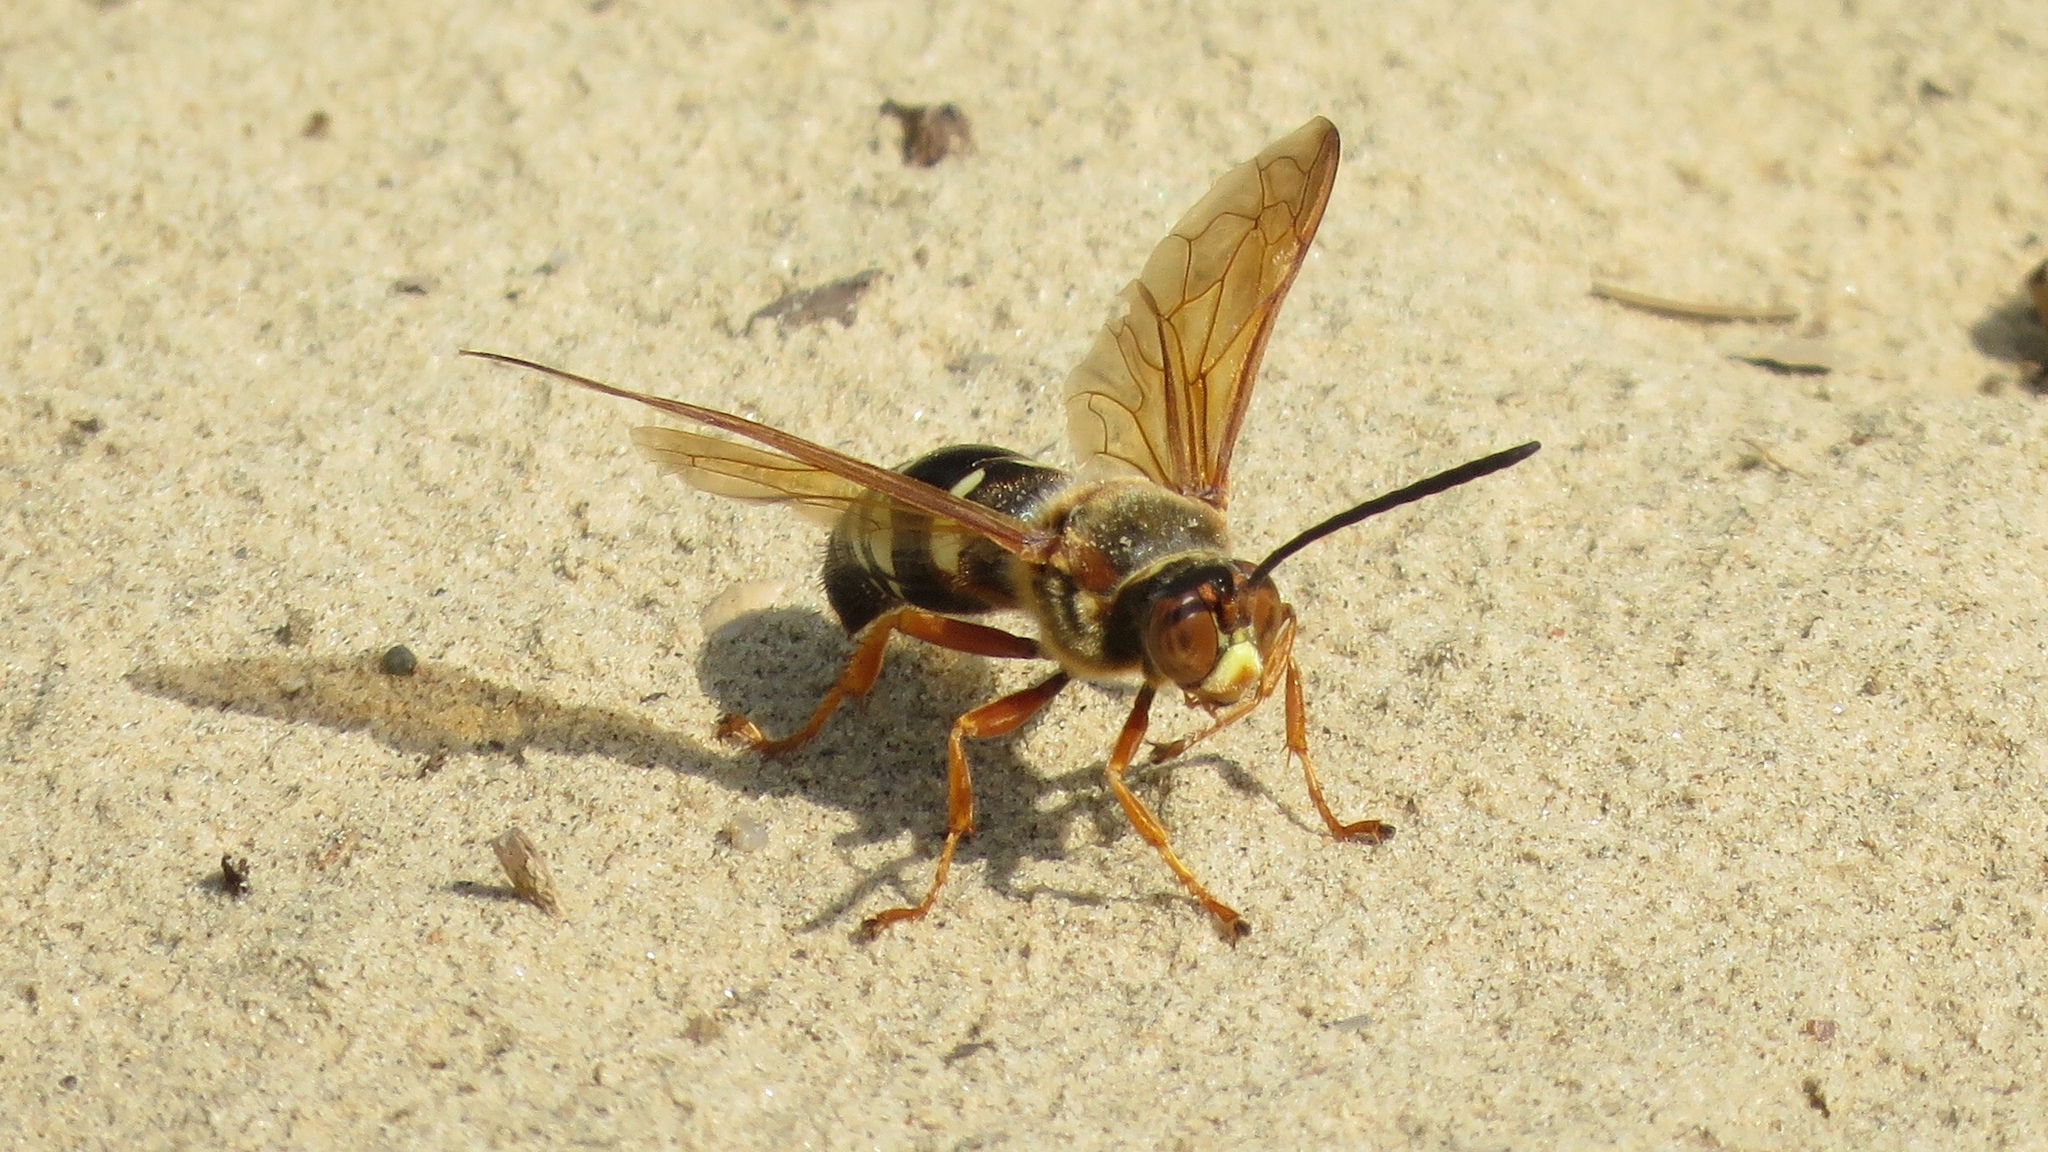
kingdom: Animalia
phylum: Arthropoda
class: Insecta
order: Hymenoptera
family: Crabronidae
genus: Sphecius
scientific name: Sphecius speciosus
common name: Cicada killer
